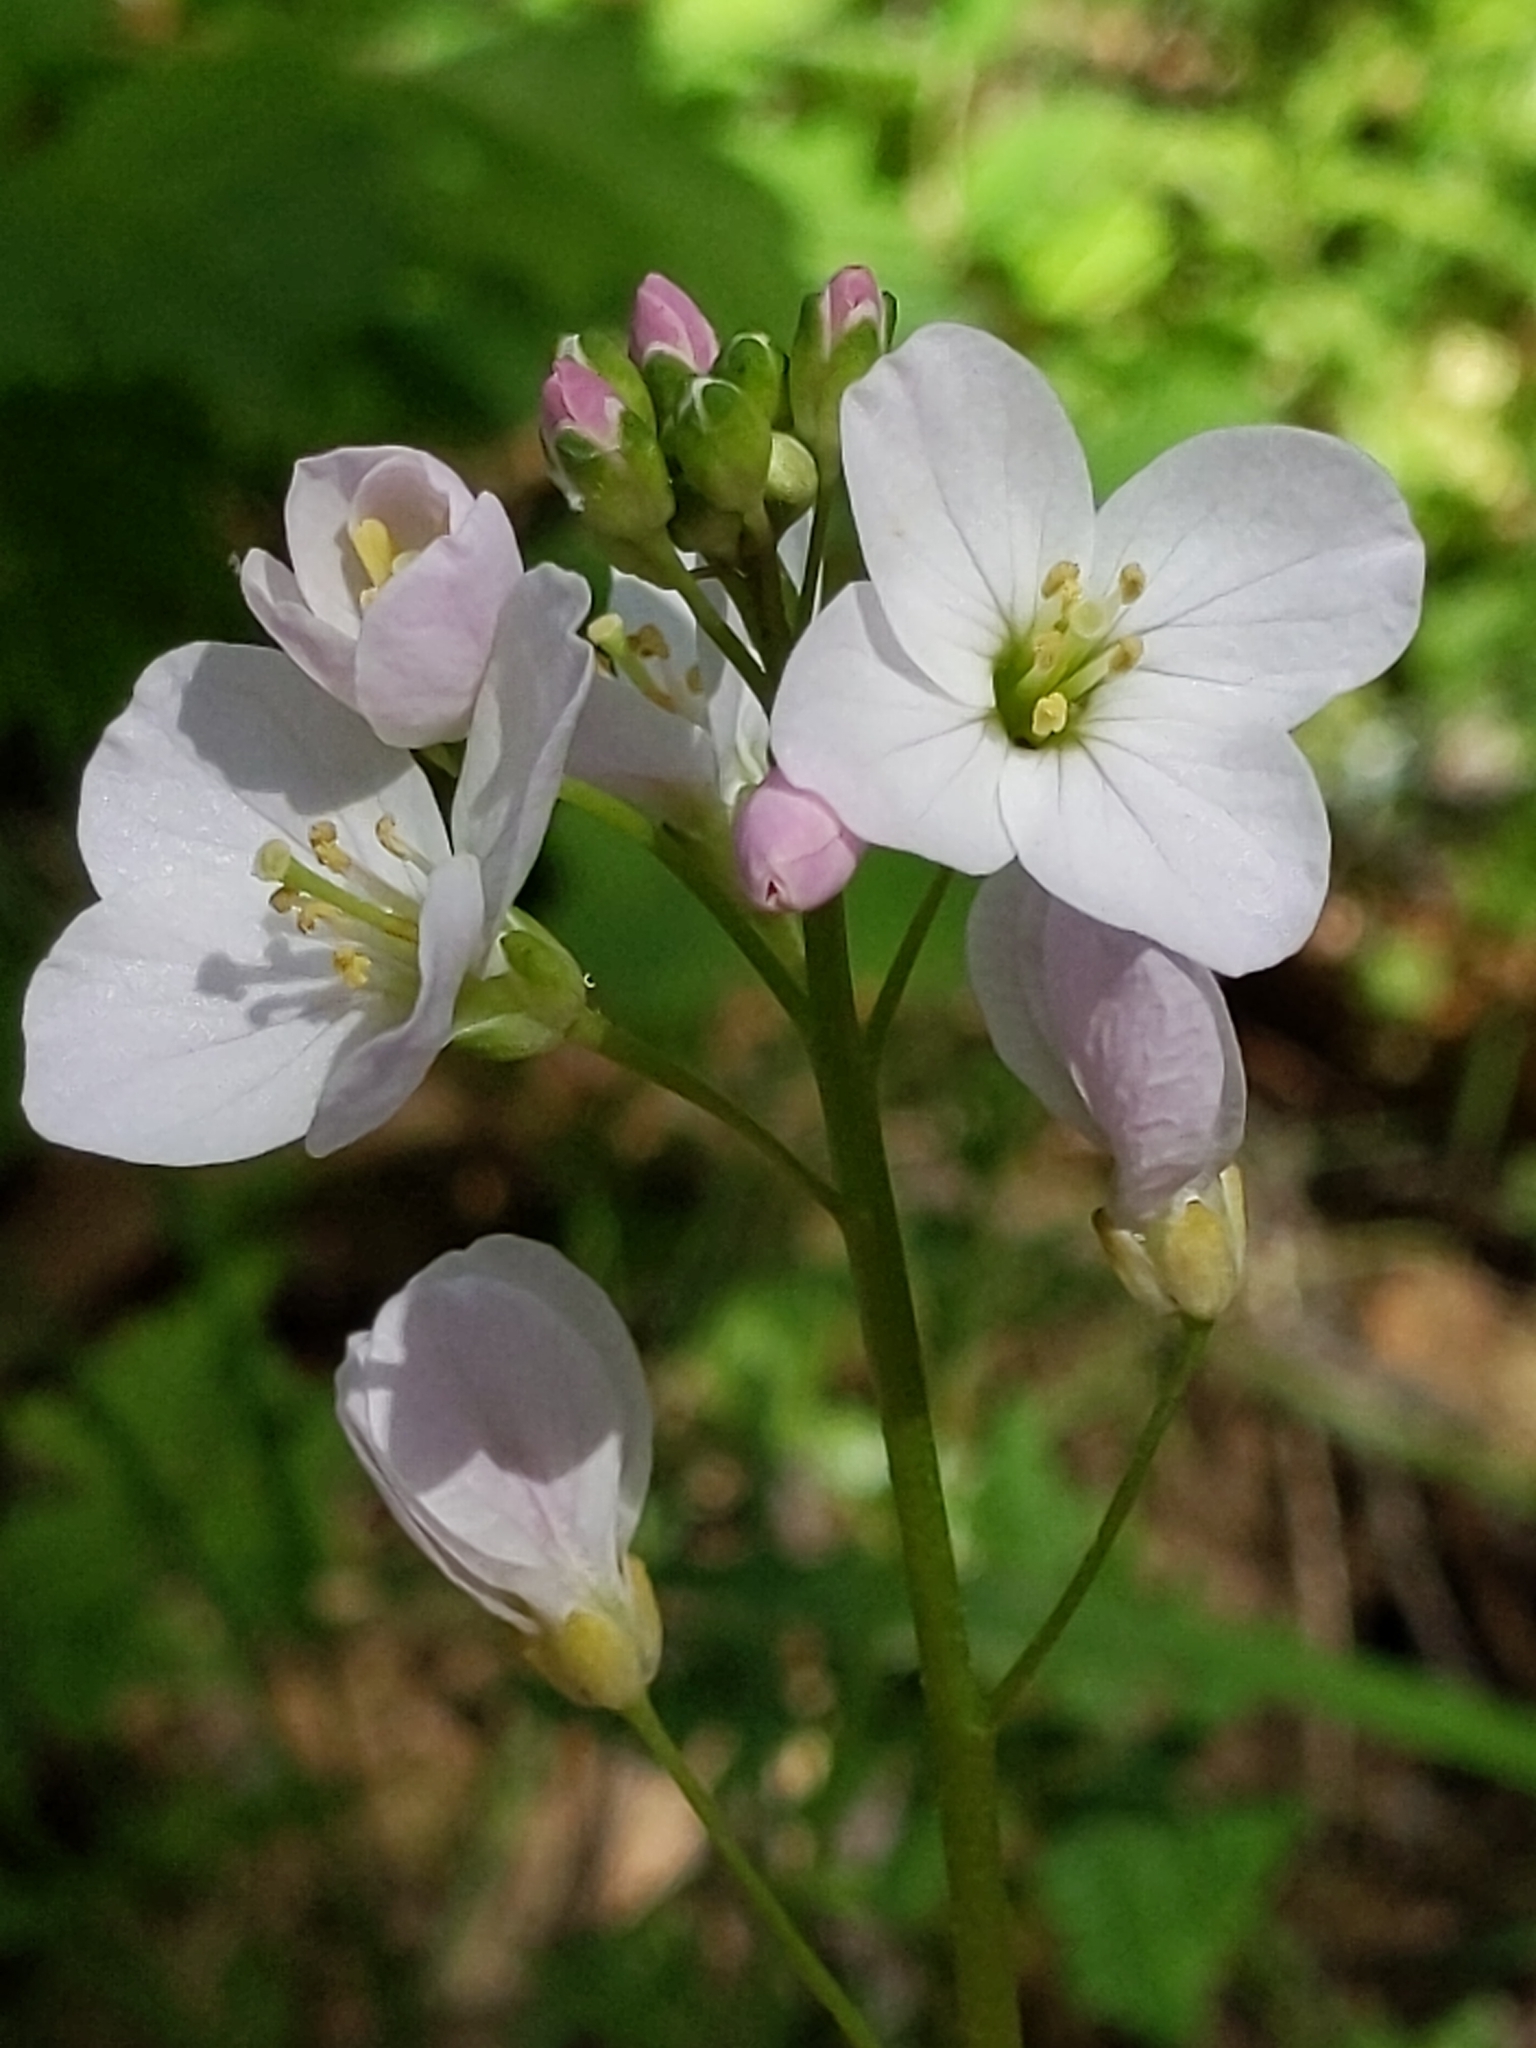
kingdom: Plantae
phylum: Tracheophyta
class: Magnoliopsida
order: Brassicales
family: Brassicaceae
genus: Cardamine
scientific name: Cardamine californica
